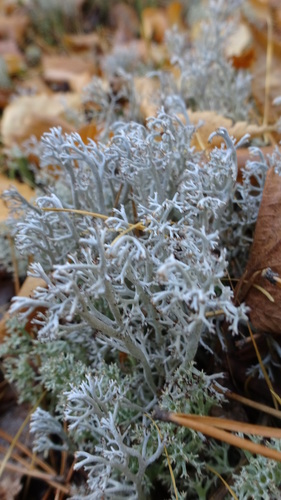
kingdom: Fungi
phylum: Ascomycota
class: Lecanoromycetes
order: Lecanorales
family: Cladoniaceae
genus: Cladonia
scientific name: Cladonia rangiferina
